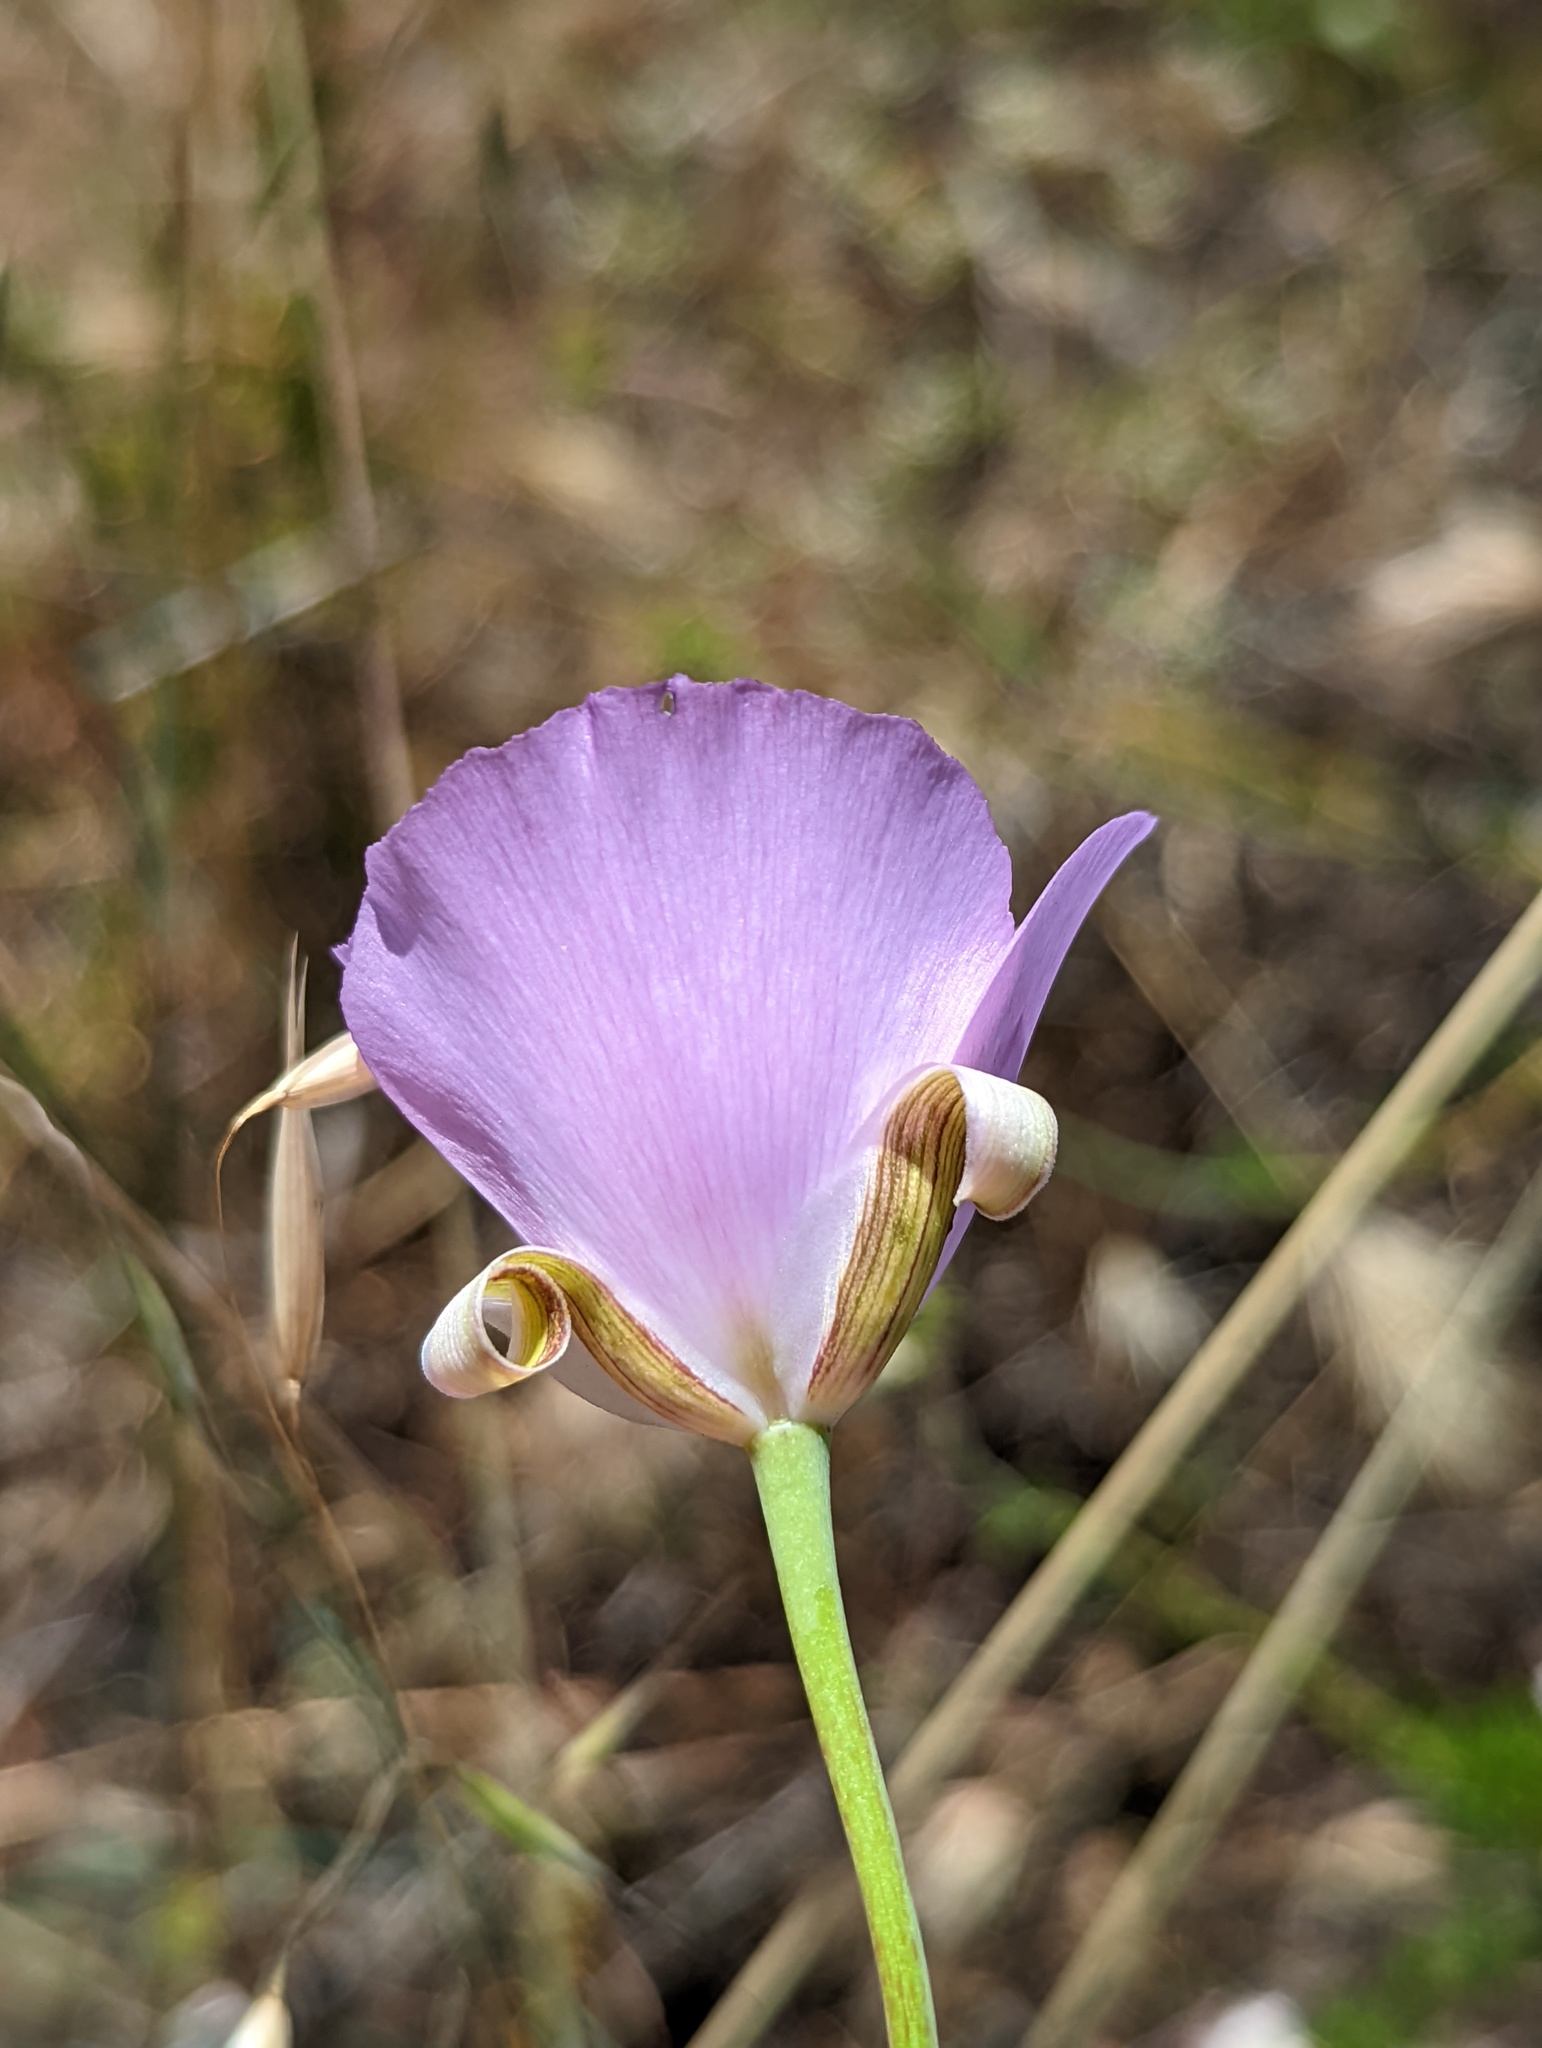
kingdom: Plantae
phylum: Tracheophyta
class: Liliopsida
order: Liliales
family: Liliaceae
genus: Calochortus
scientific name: Calochortus splendens
